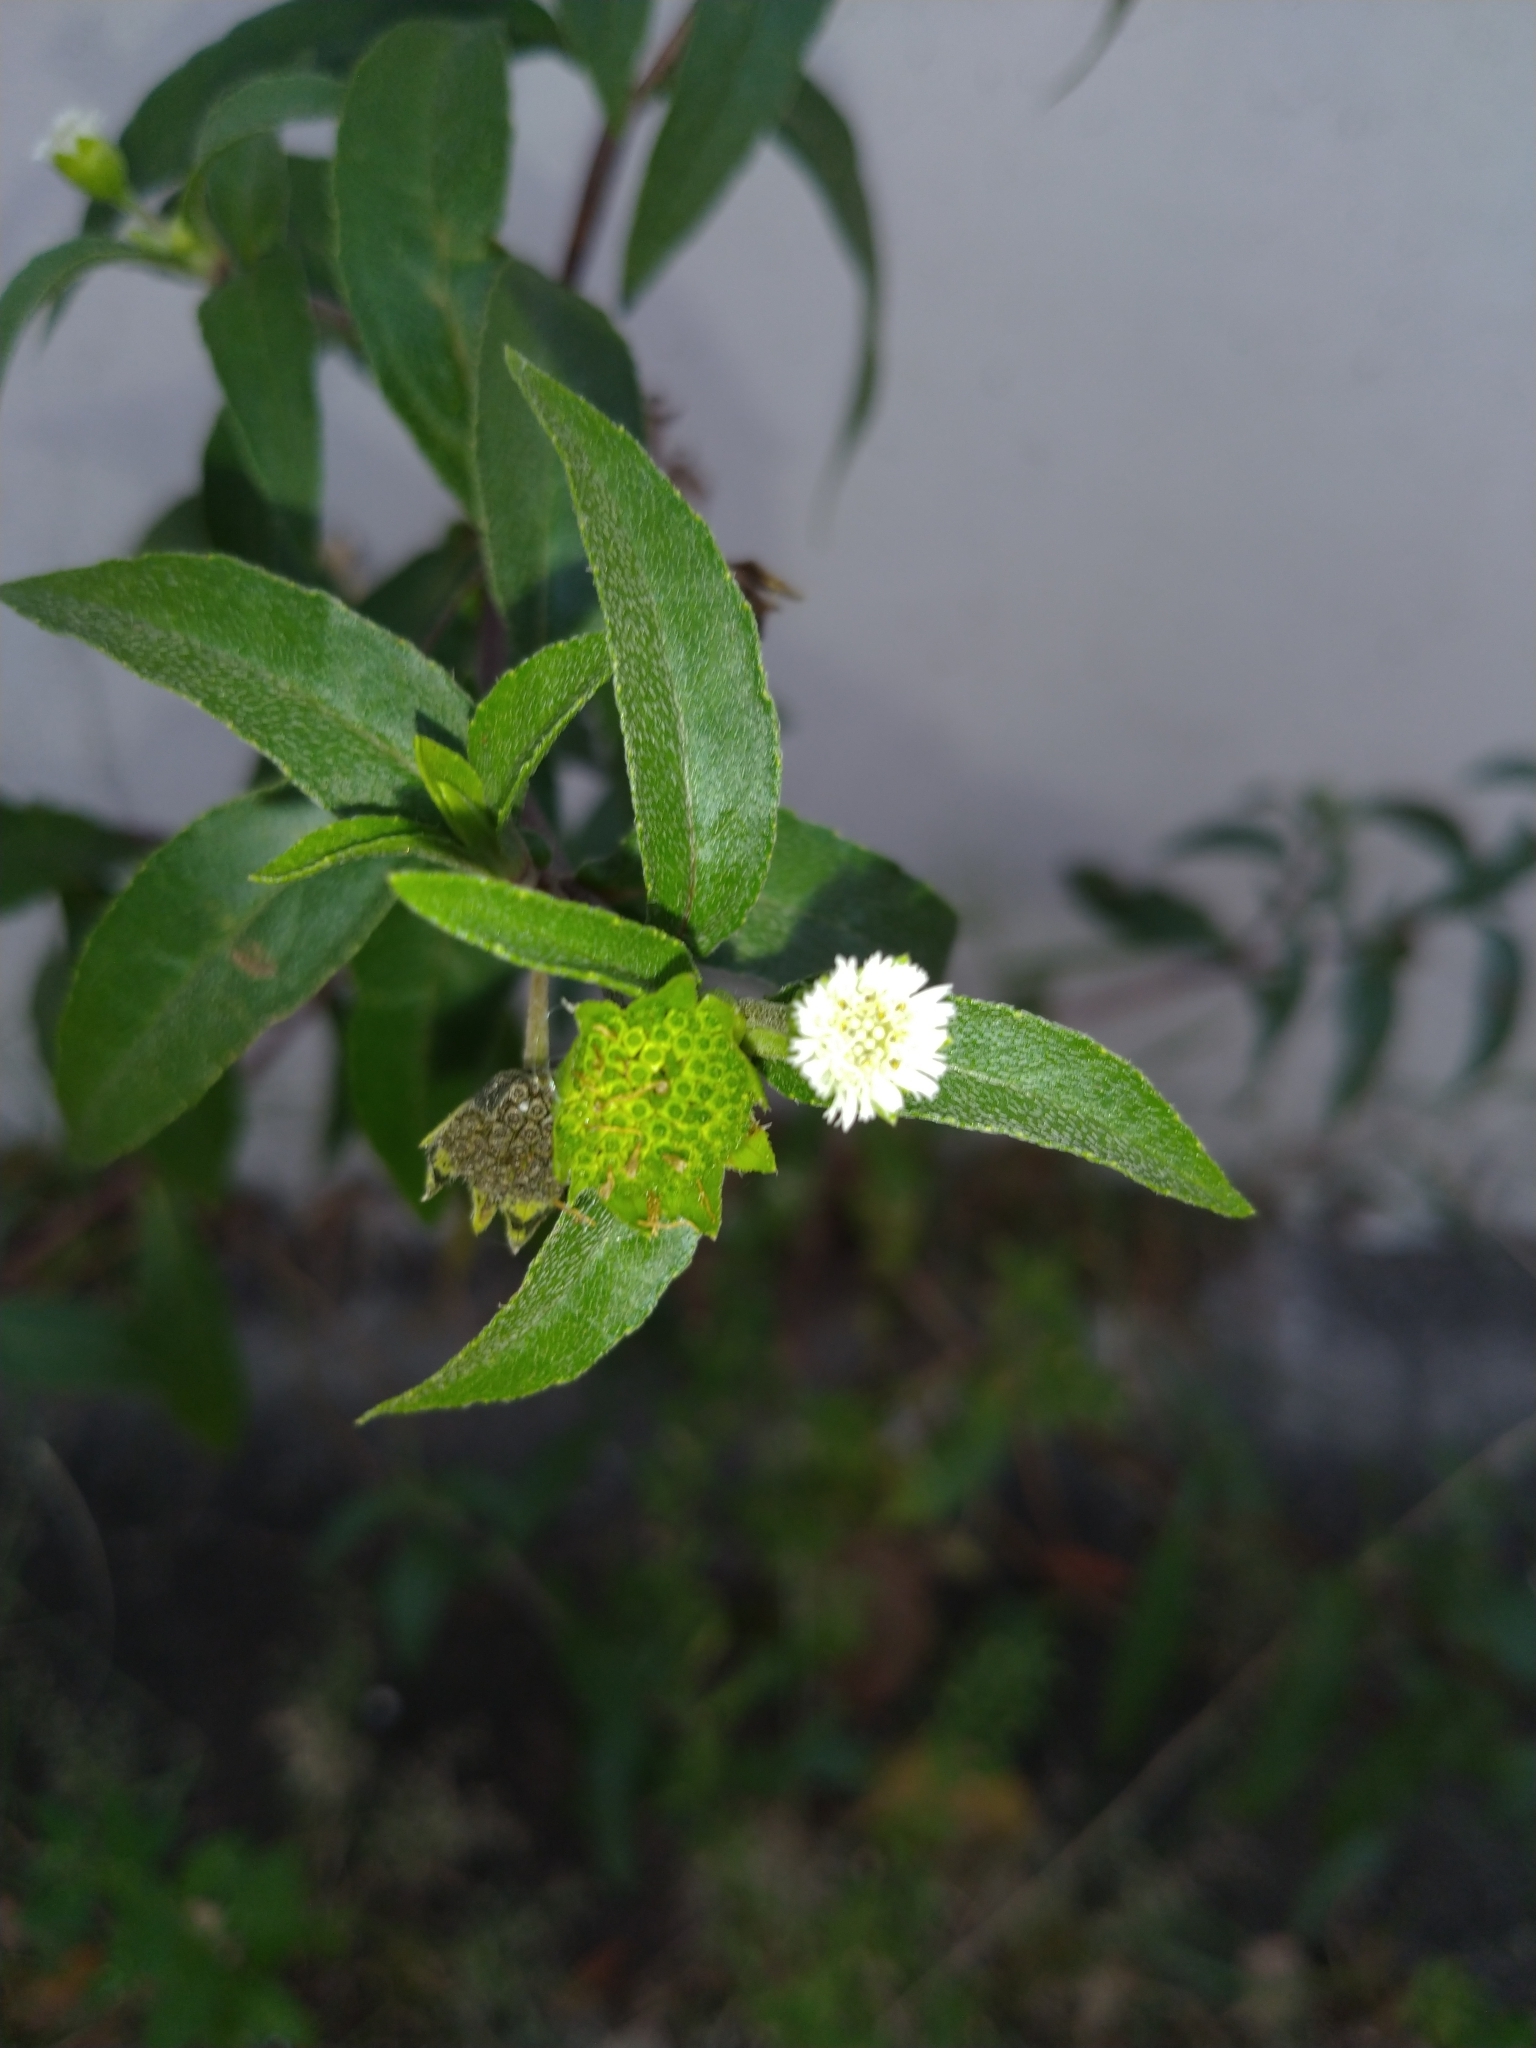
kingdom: Plantae
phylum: Tracheophyta
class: Magnoliopsida
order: Asterales
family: Asteraceae
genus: Eclipta
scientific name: Eclipta prostrata
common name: False daisy
